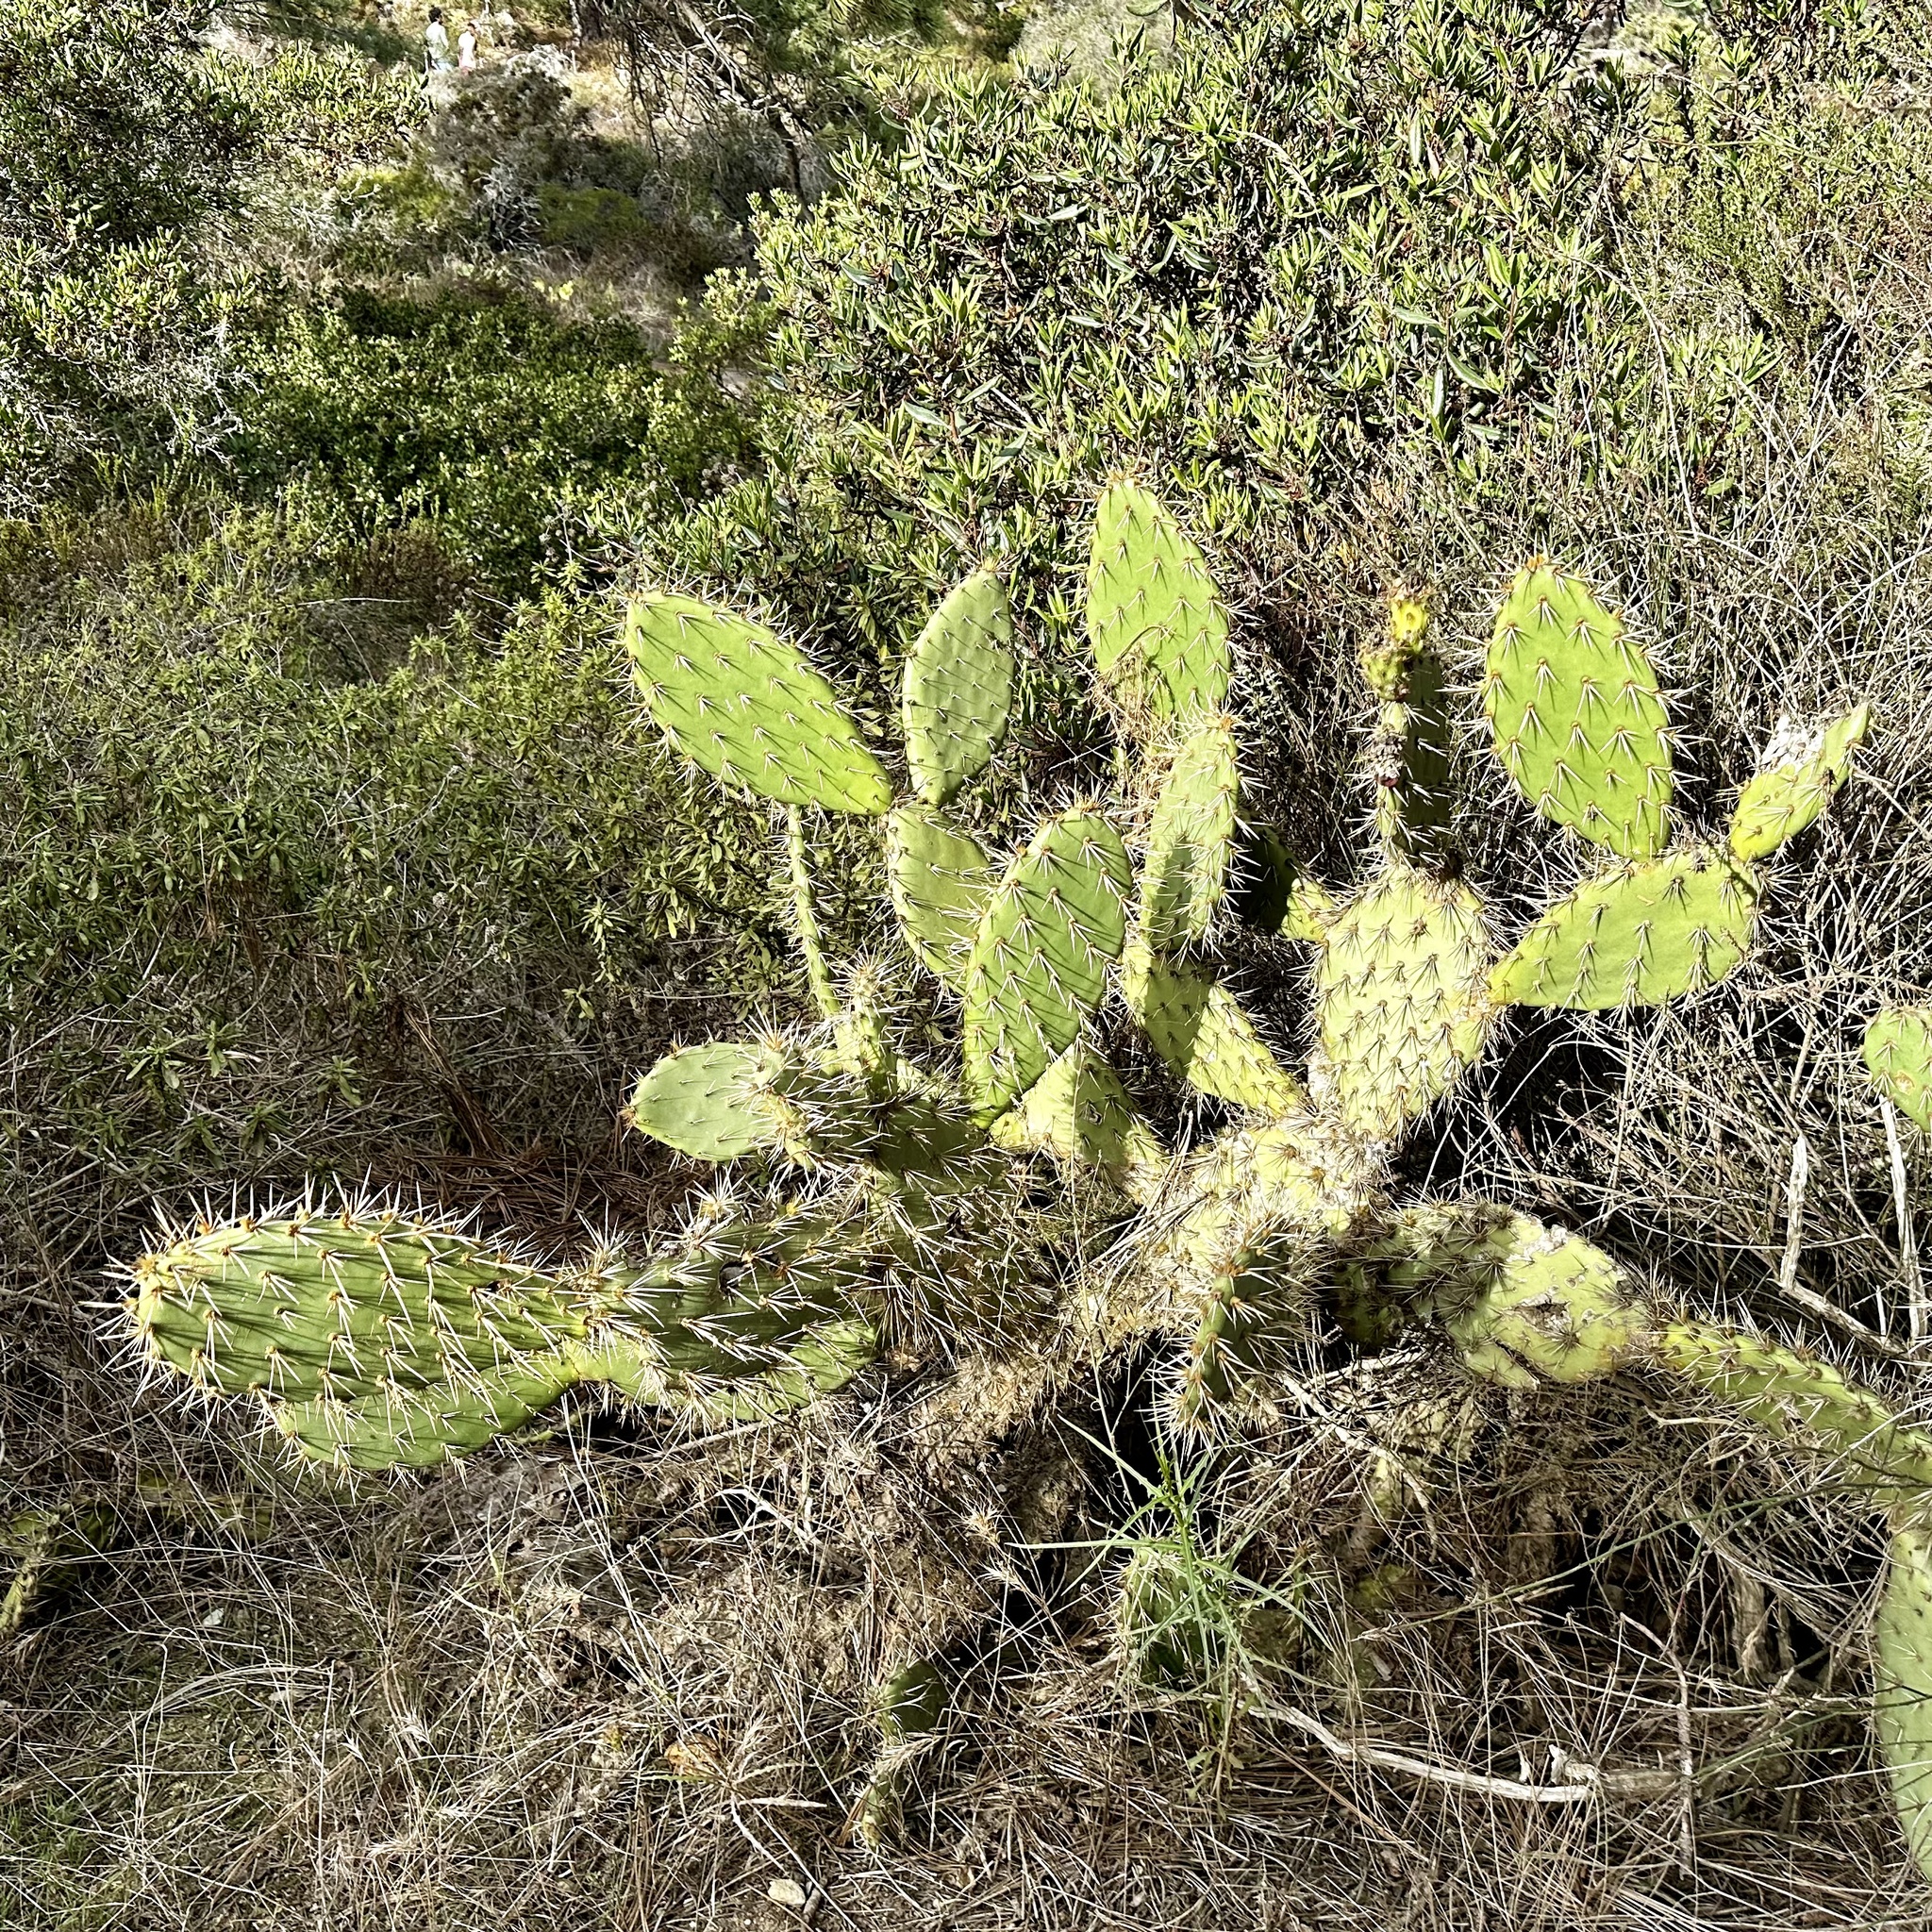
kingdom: Plantae
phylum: Tracheophyta
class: Magnoliopsida
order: Caryophyllales
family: Cactaceae
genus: Opuntia
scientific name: Opuntia littoralis
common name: Coastal prickly-pear
